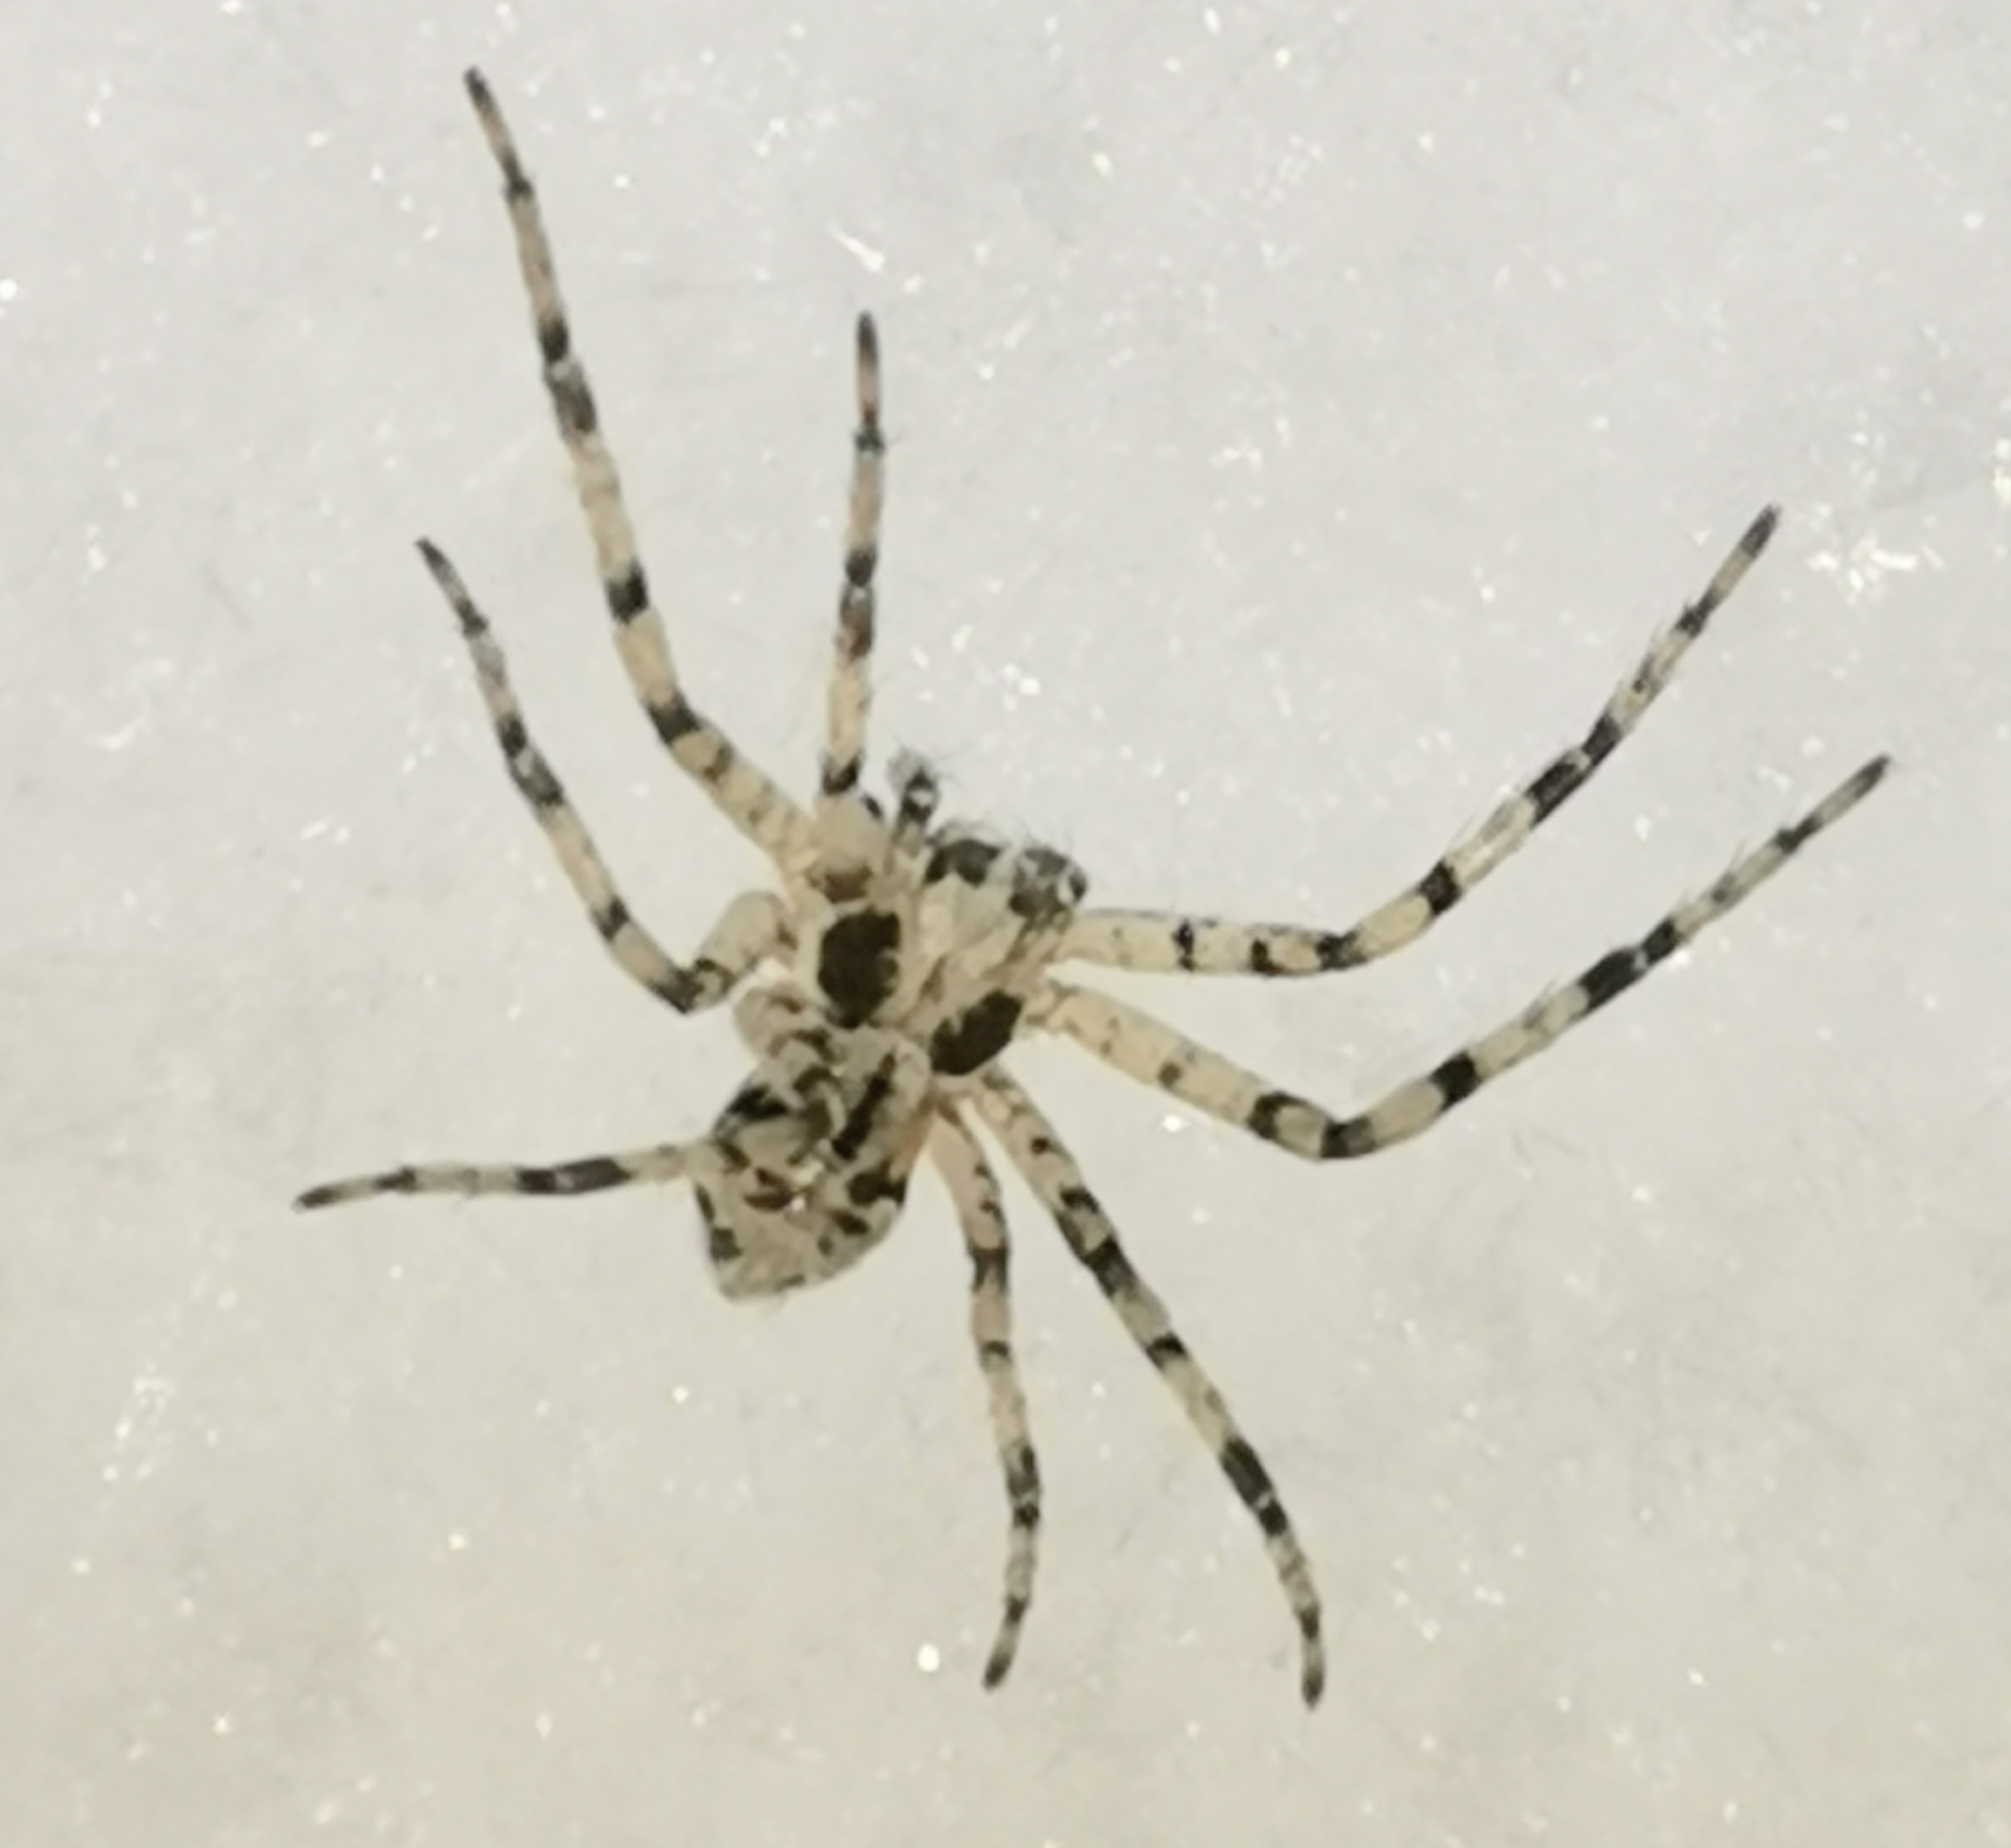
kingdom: Animalia
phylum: Arthropoda
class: Arachnida
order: Araneae
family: Philodromidae
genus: Philodromus
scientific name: Philodromus margaritatus
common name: Lichen running-spider
